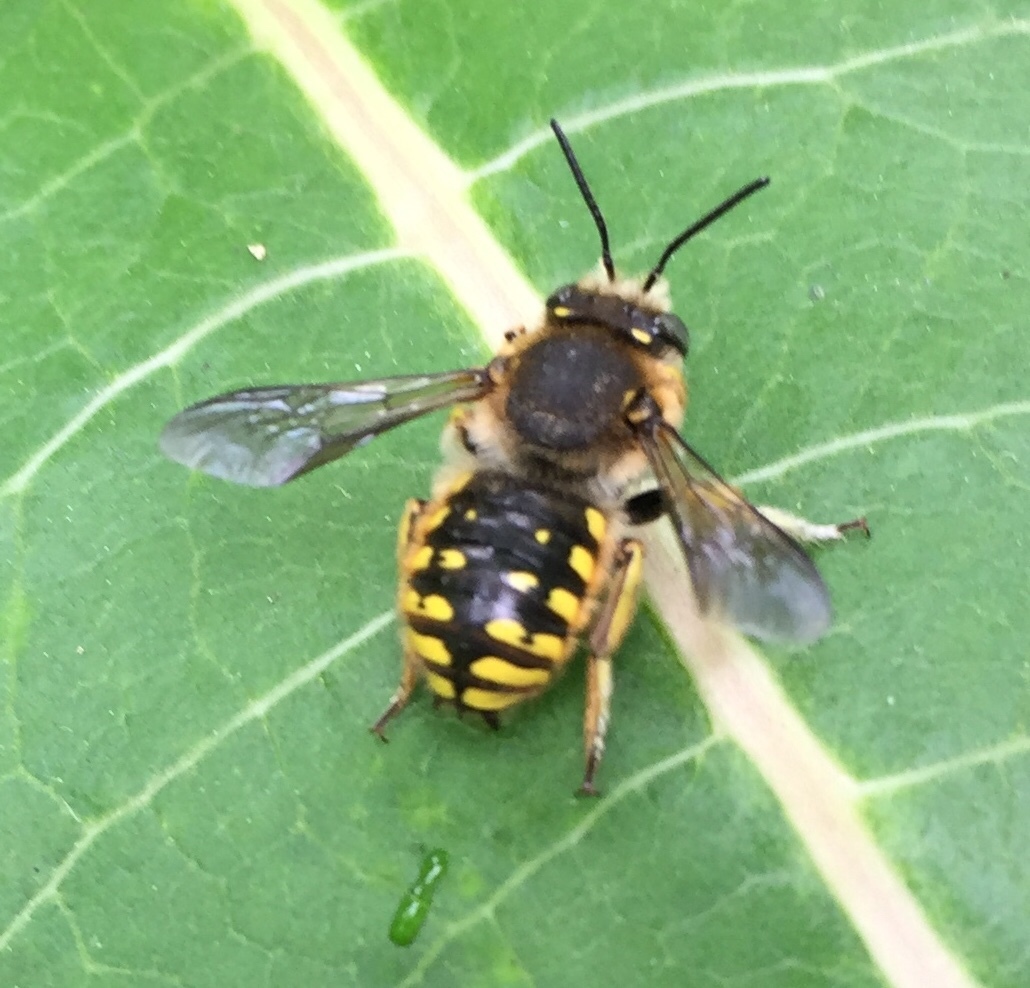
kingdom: Animalia
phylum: Arthropoda
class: Insecta
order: Hymenoptera
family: Megachilidae
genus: Anthidium
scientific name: Anthidium manicatum
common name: Wool carder bee
